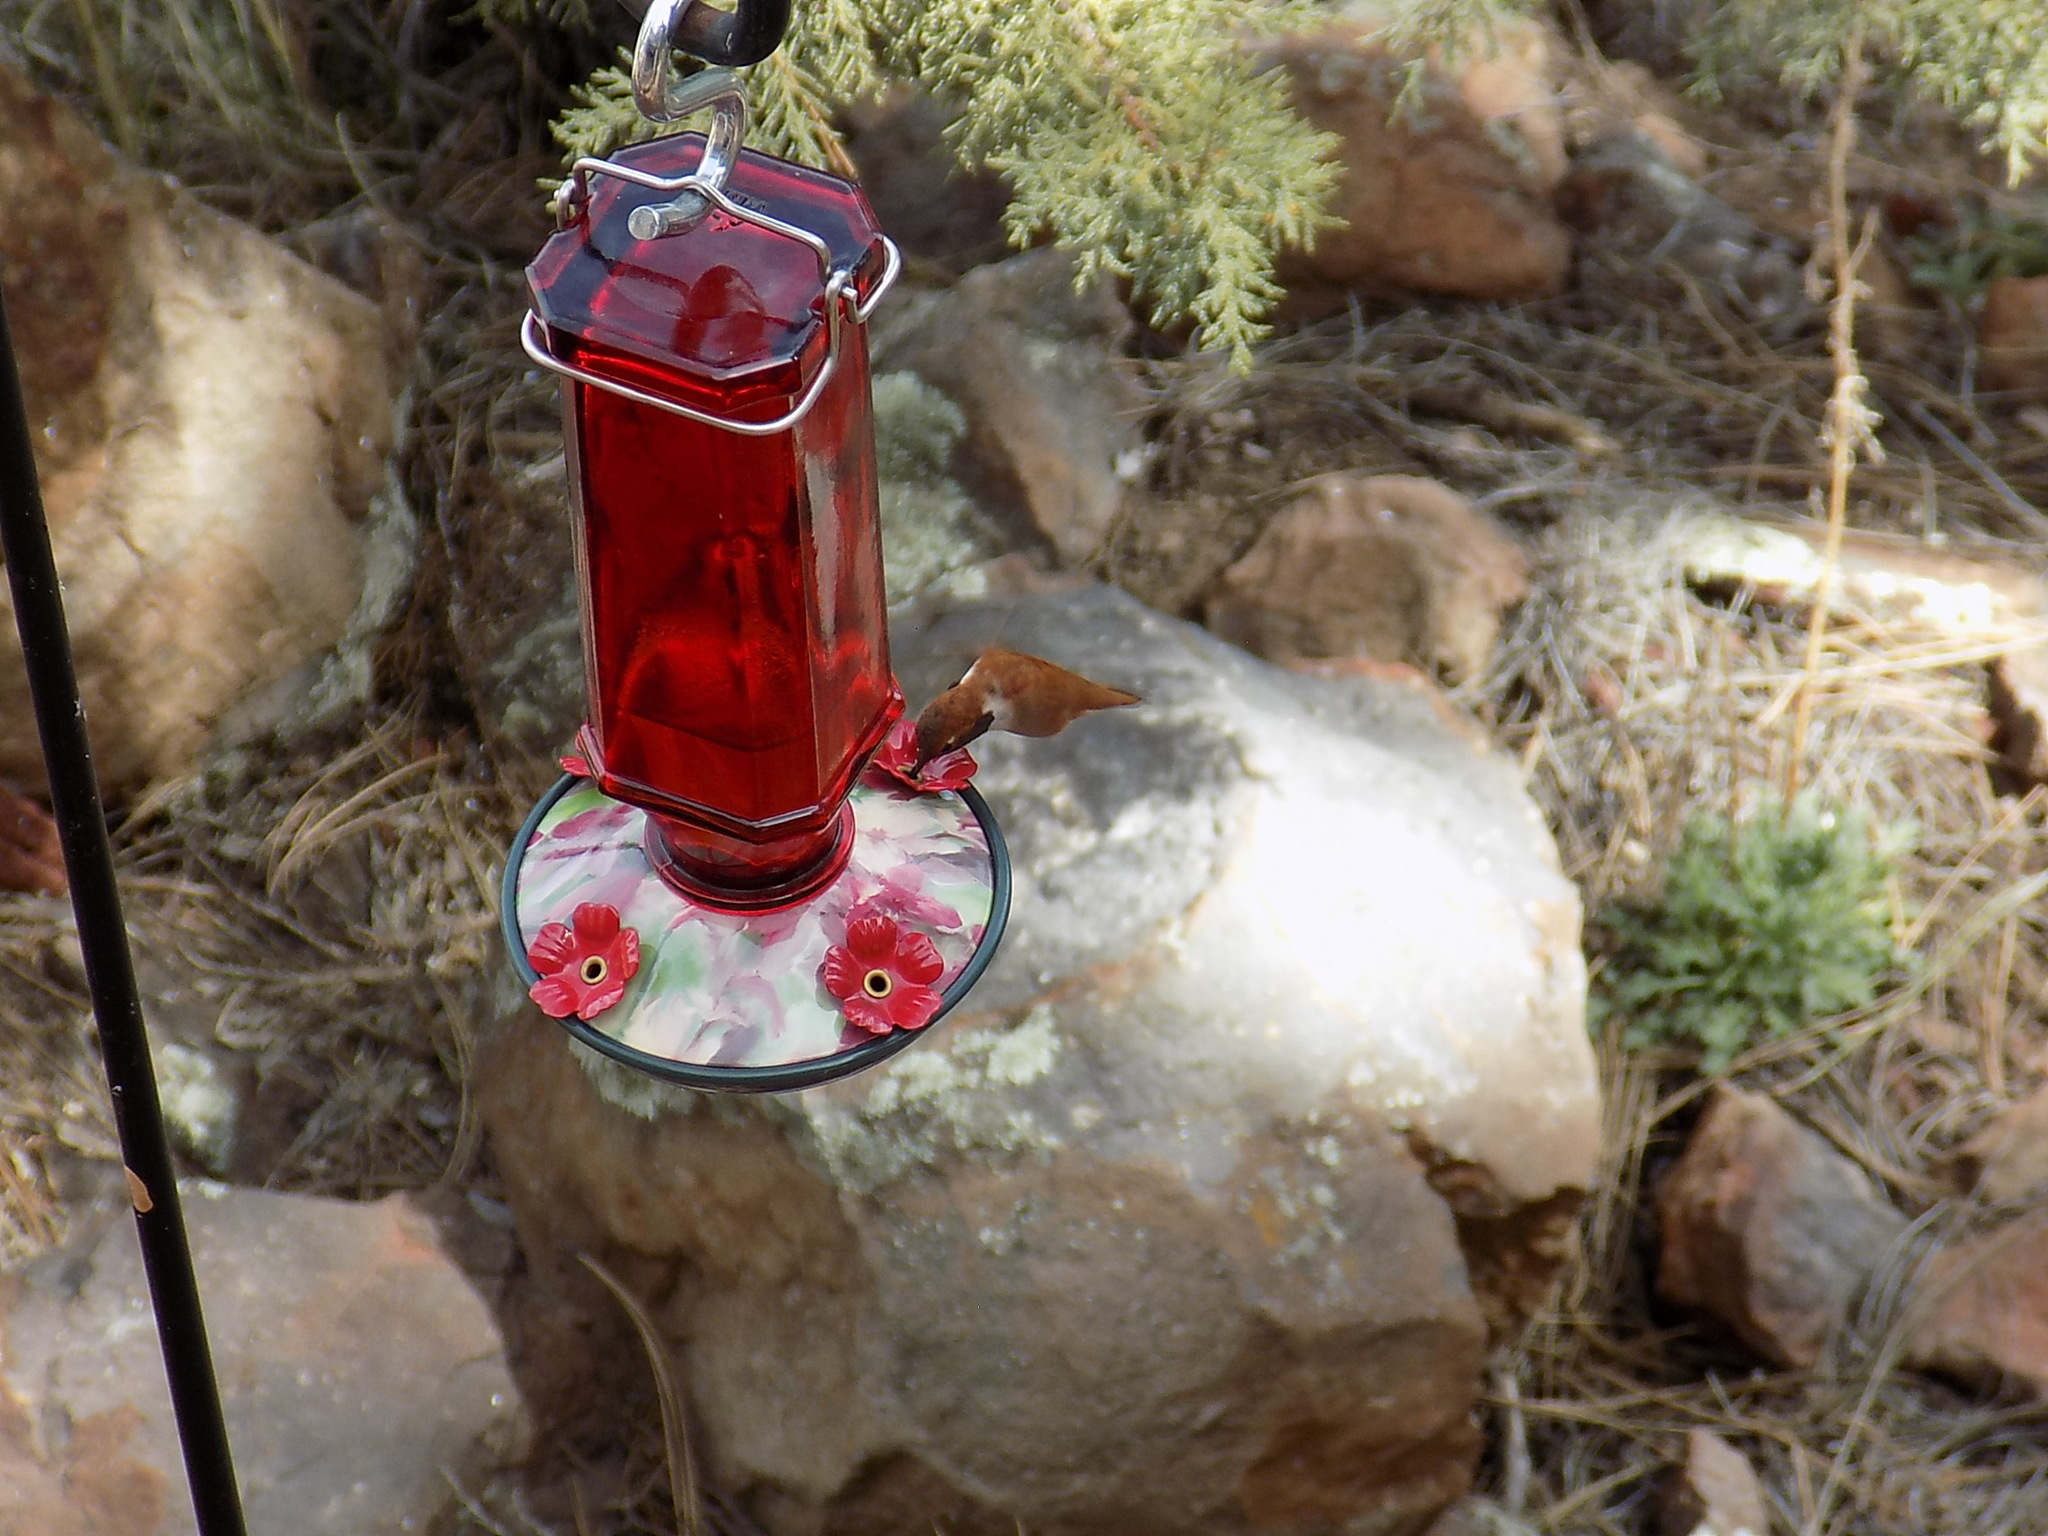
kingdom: Animalia
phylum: Chordata
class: Aves
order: Apodiformes
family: Trochilidae
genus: Selasphorus
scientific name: Selasphorus rufus
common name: Rufous hummingbird
